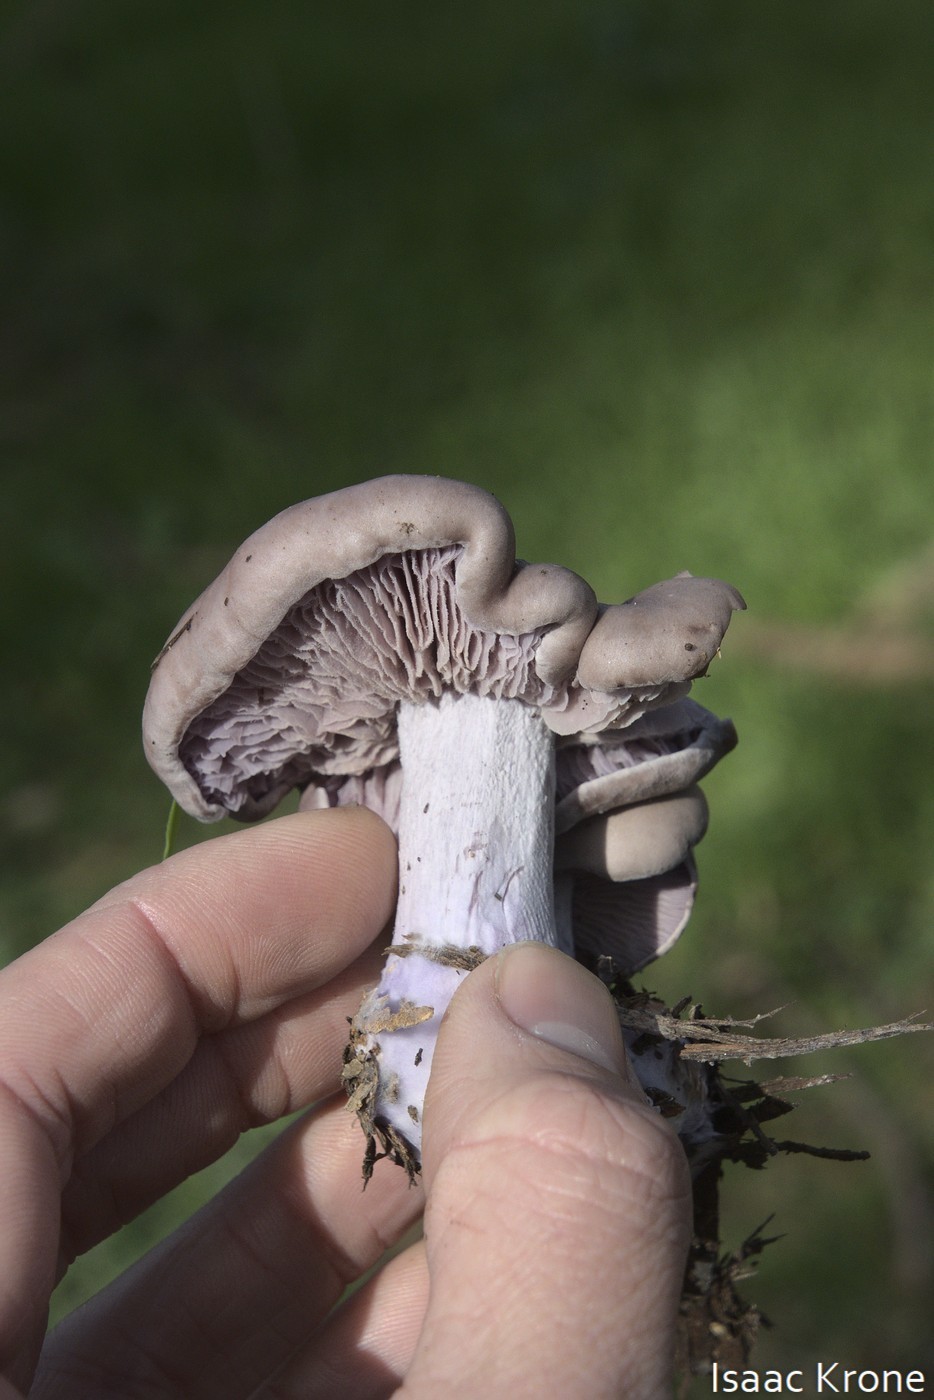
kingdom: Fungi
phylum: Basidiomycota
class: Agaricomycetes
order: Agaricales
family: Tricholomataceae
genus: Collybia
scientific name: Collybia
